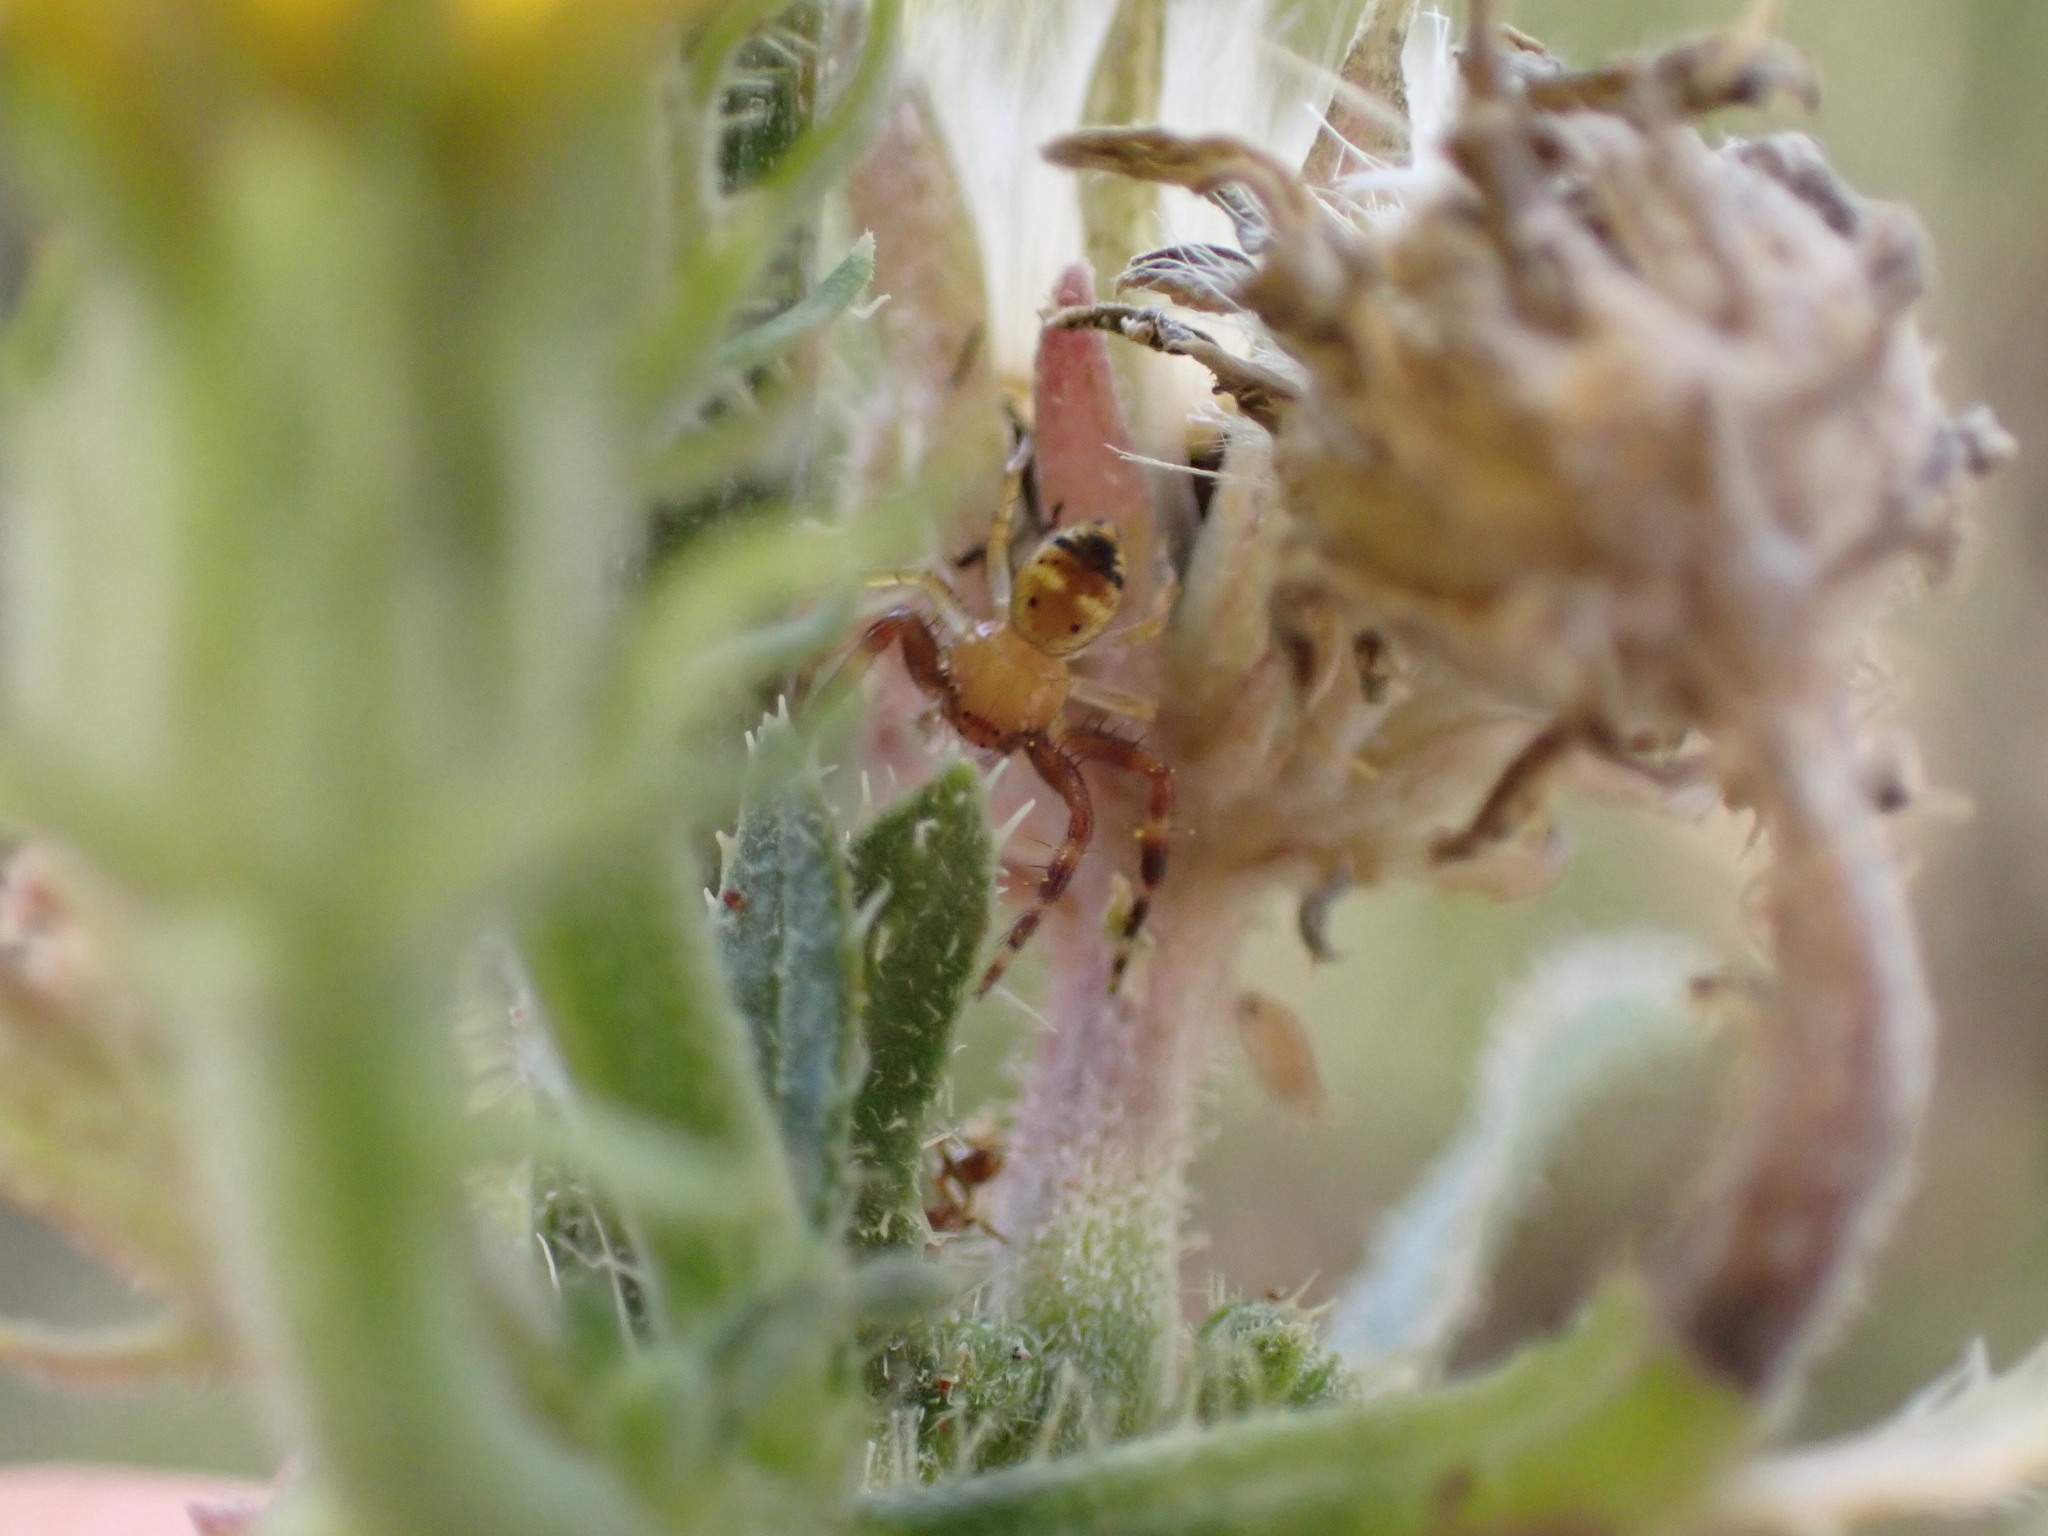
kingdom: Animalia
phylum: Arthropoda
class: Arachnida
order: Araneae
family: Thomisidae
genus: Synema
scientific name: Synema globosum
